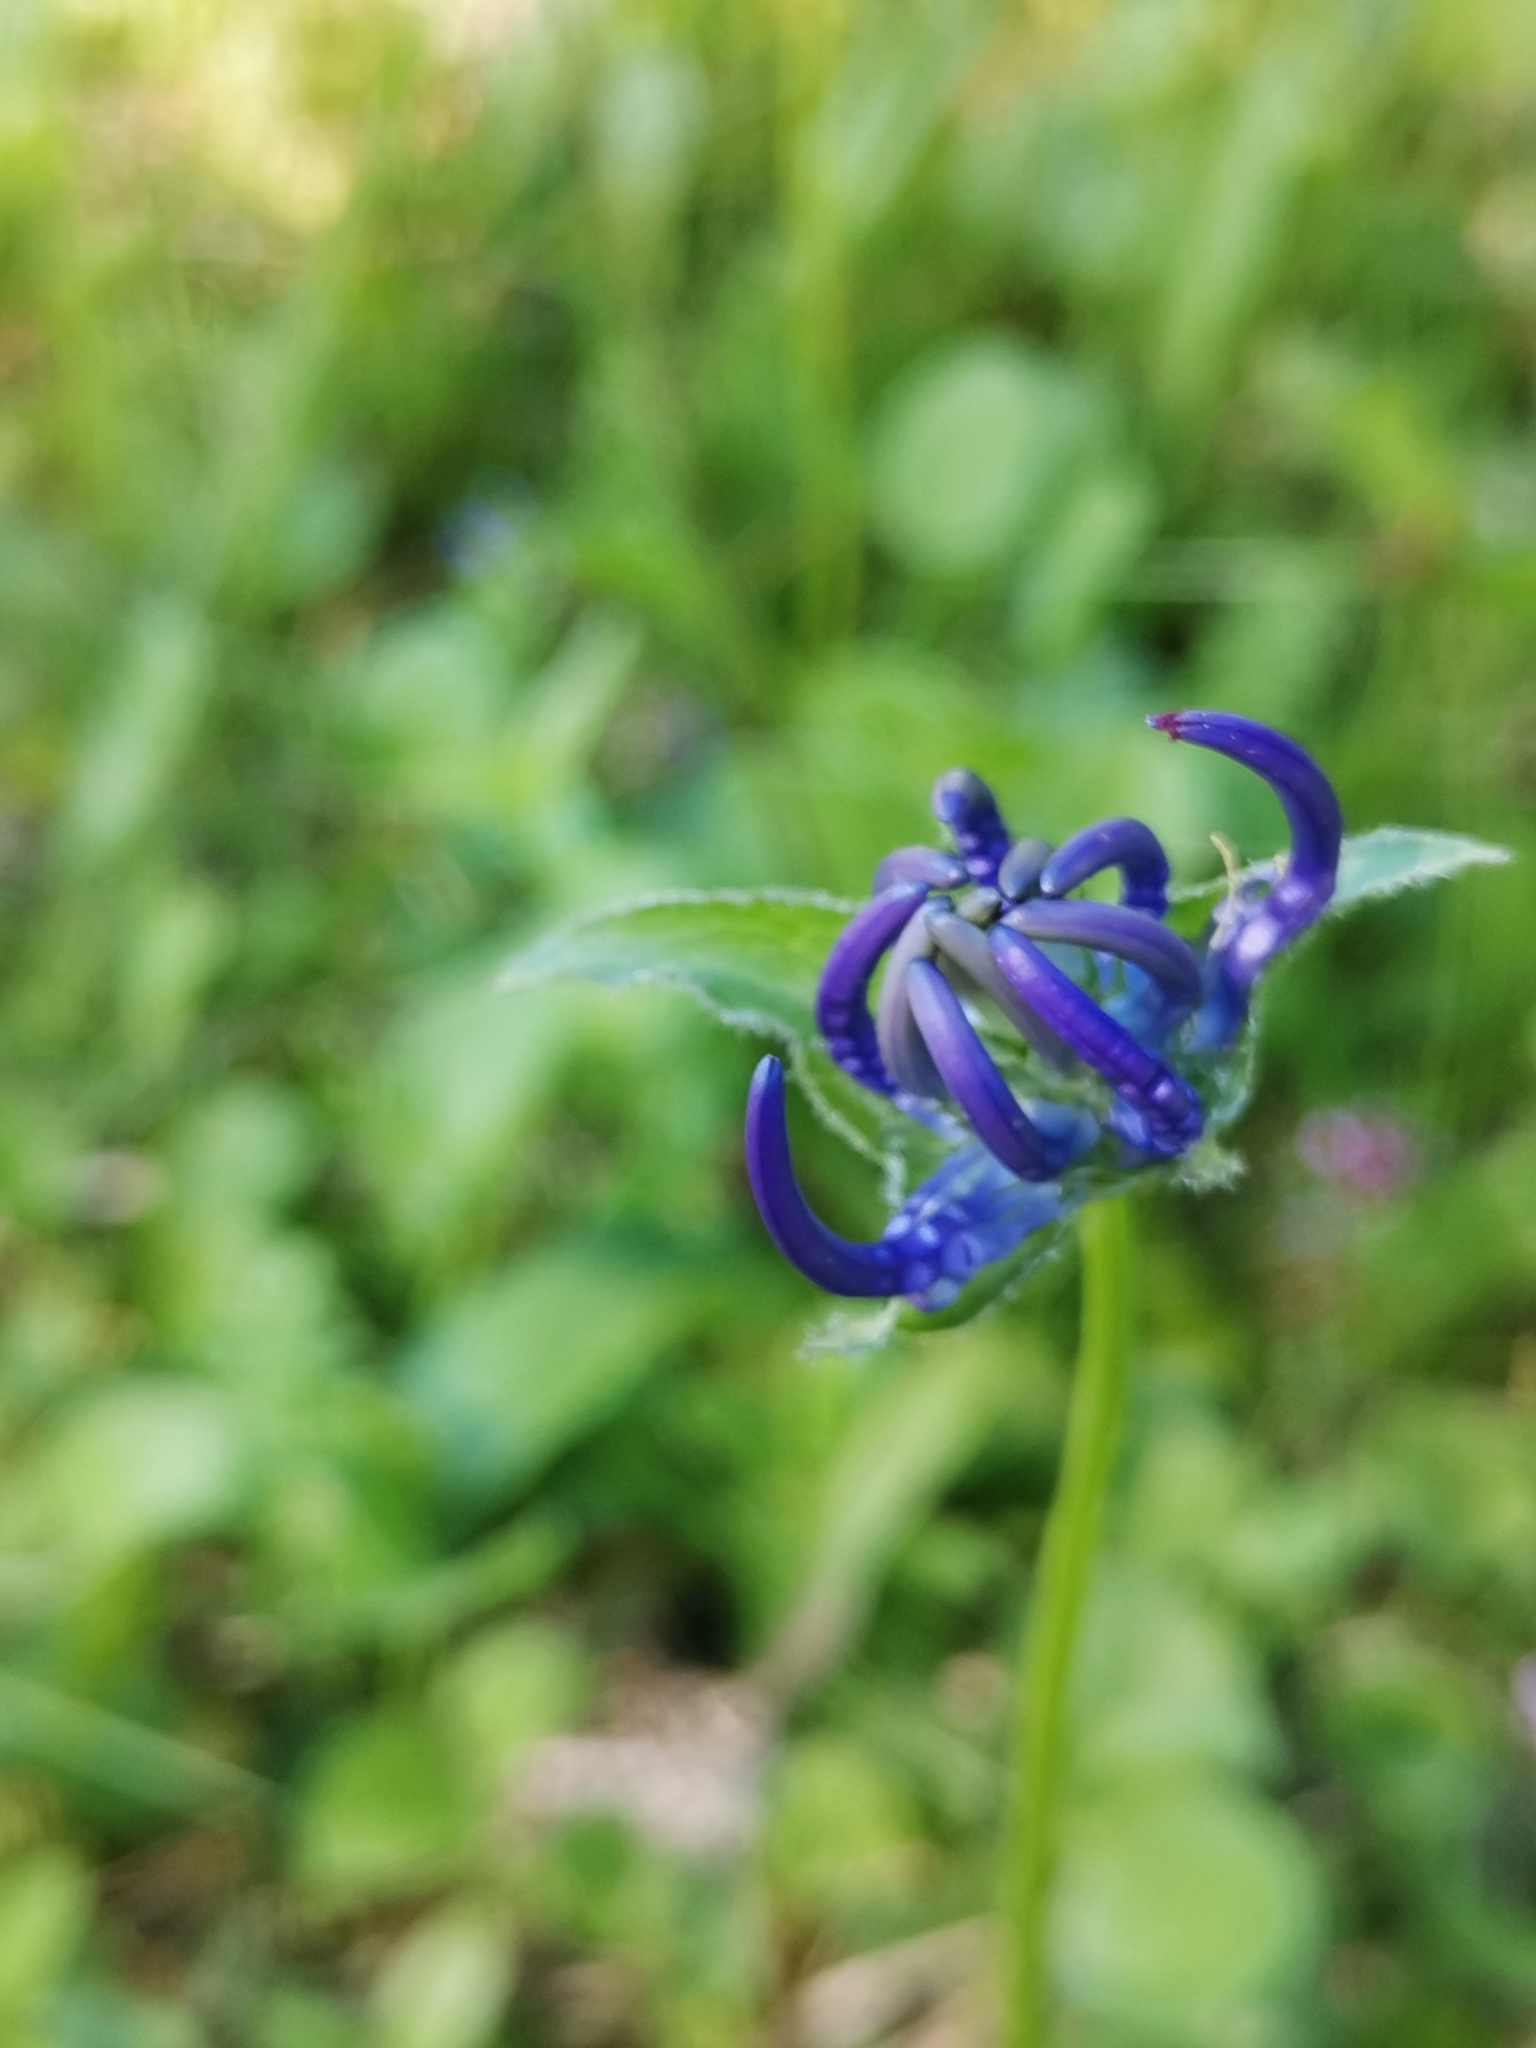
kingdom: Plantae
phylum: Tracheophyta
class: Magnoliopsida
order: Asterales
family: Campanulaceae
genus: Phyteuma
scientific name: Phyteuma orbiculare
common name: Round-headed rampion
